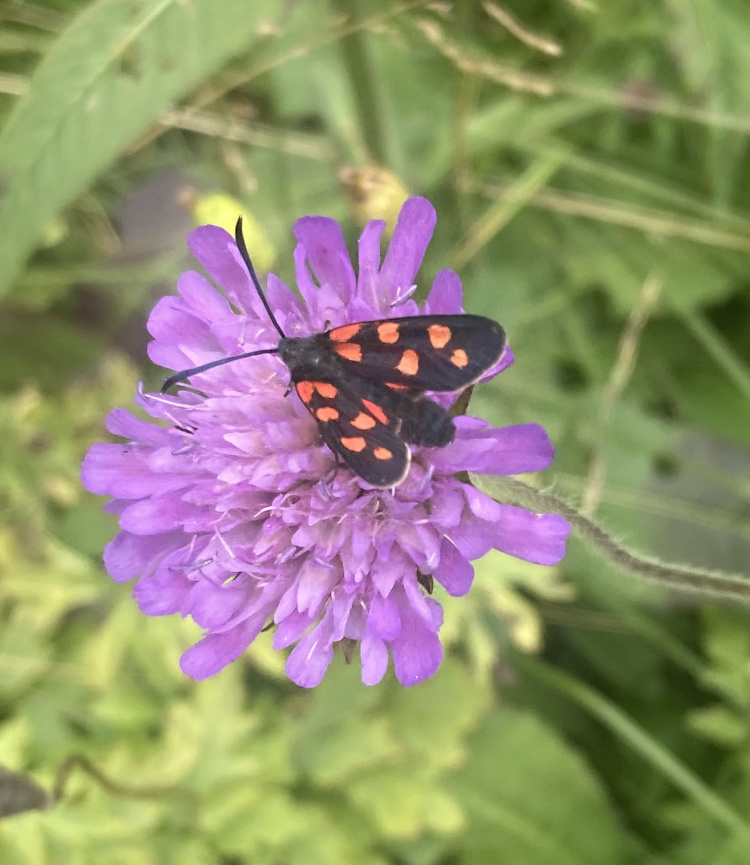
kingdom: Animalia
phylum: Arthropoda
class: Insecta
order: Lepidoptera
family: Zygaenidae
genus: Zygaena
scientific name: Zygaena transalpina
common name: Southern six spot burnet
